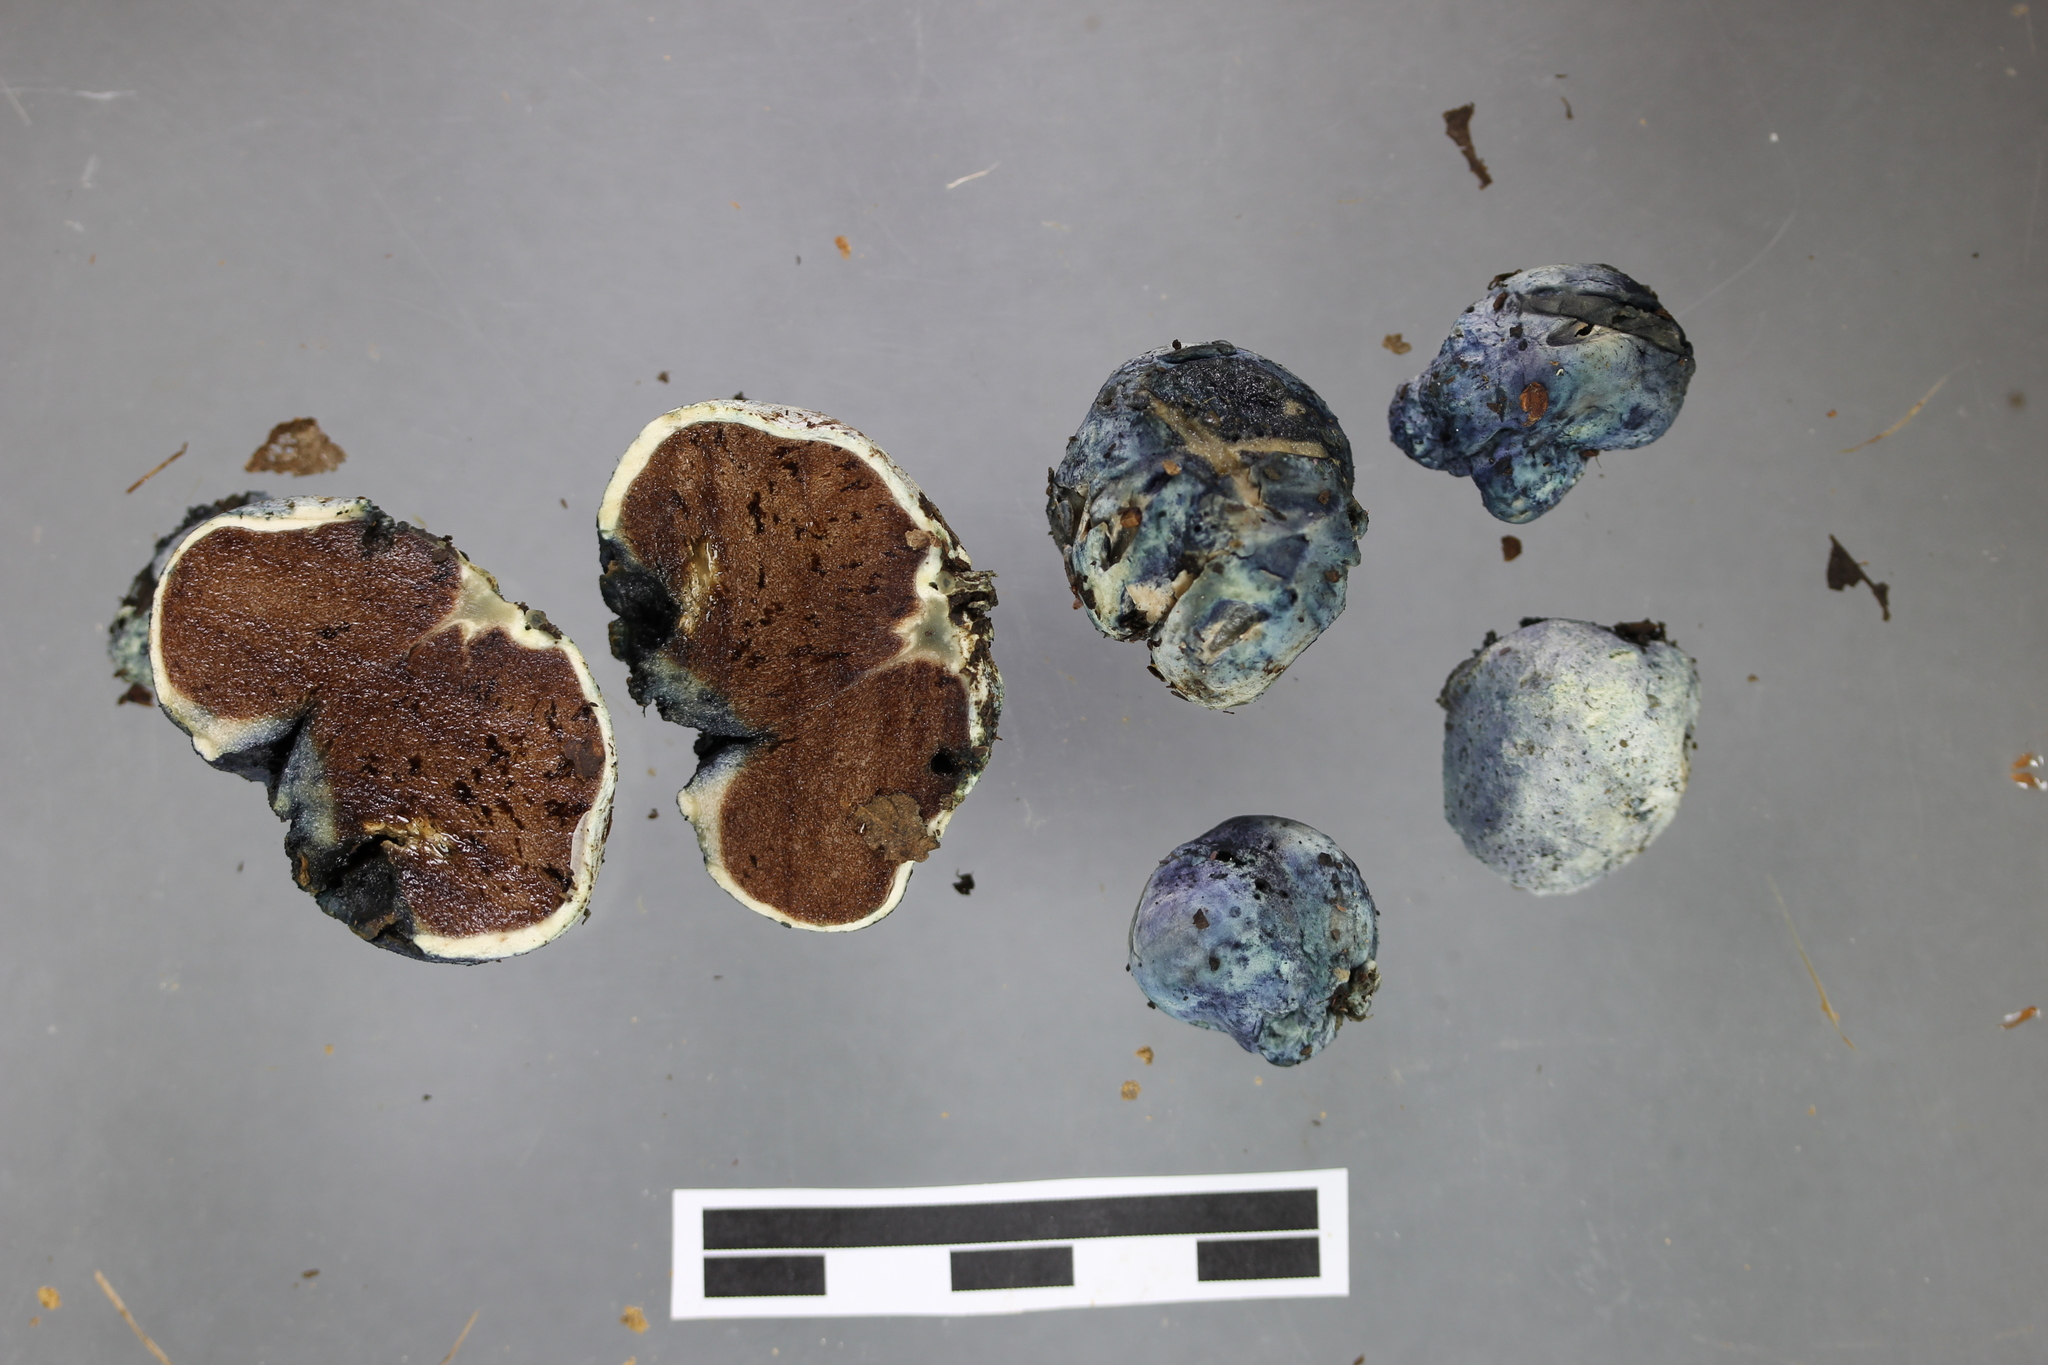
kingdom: Fungi
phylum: Basidiomycota
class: Agaricomycetes
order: Boletales
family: Boletaceae
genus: Leccinum
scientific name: Leccinum pachyderme
